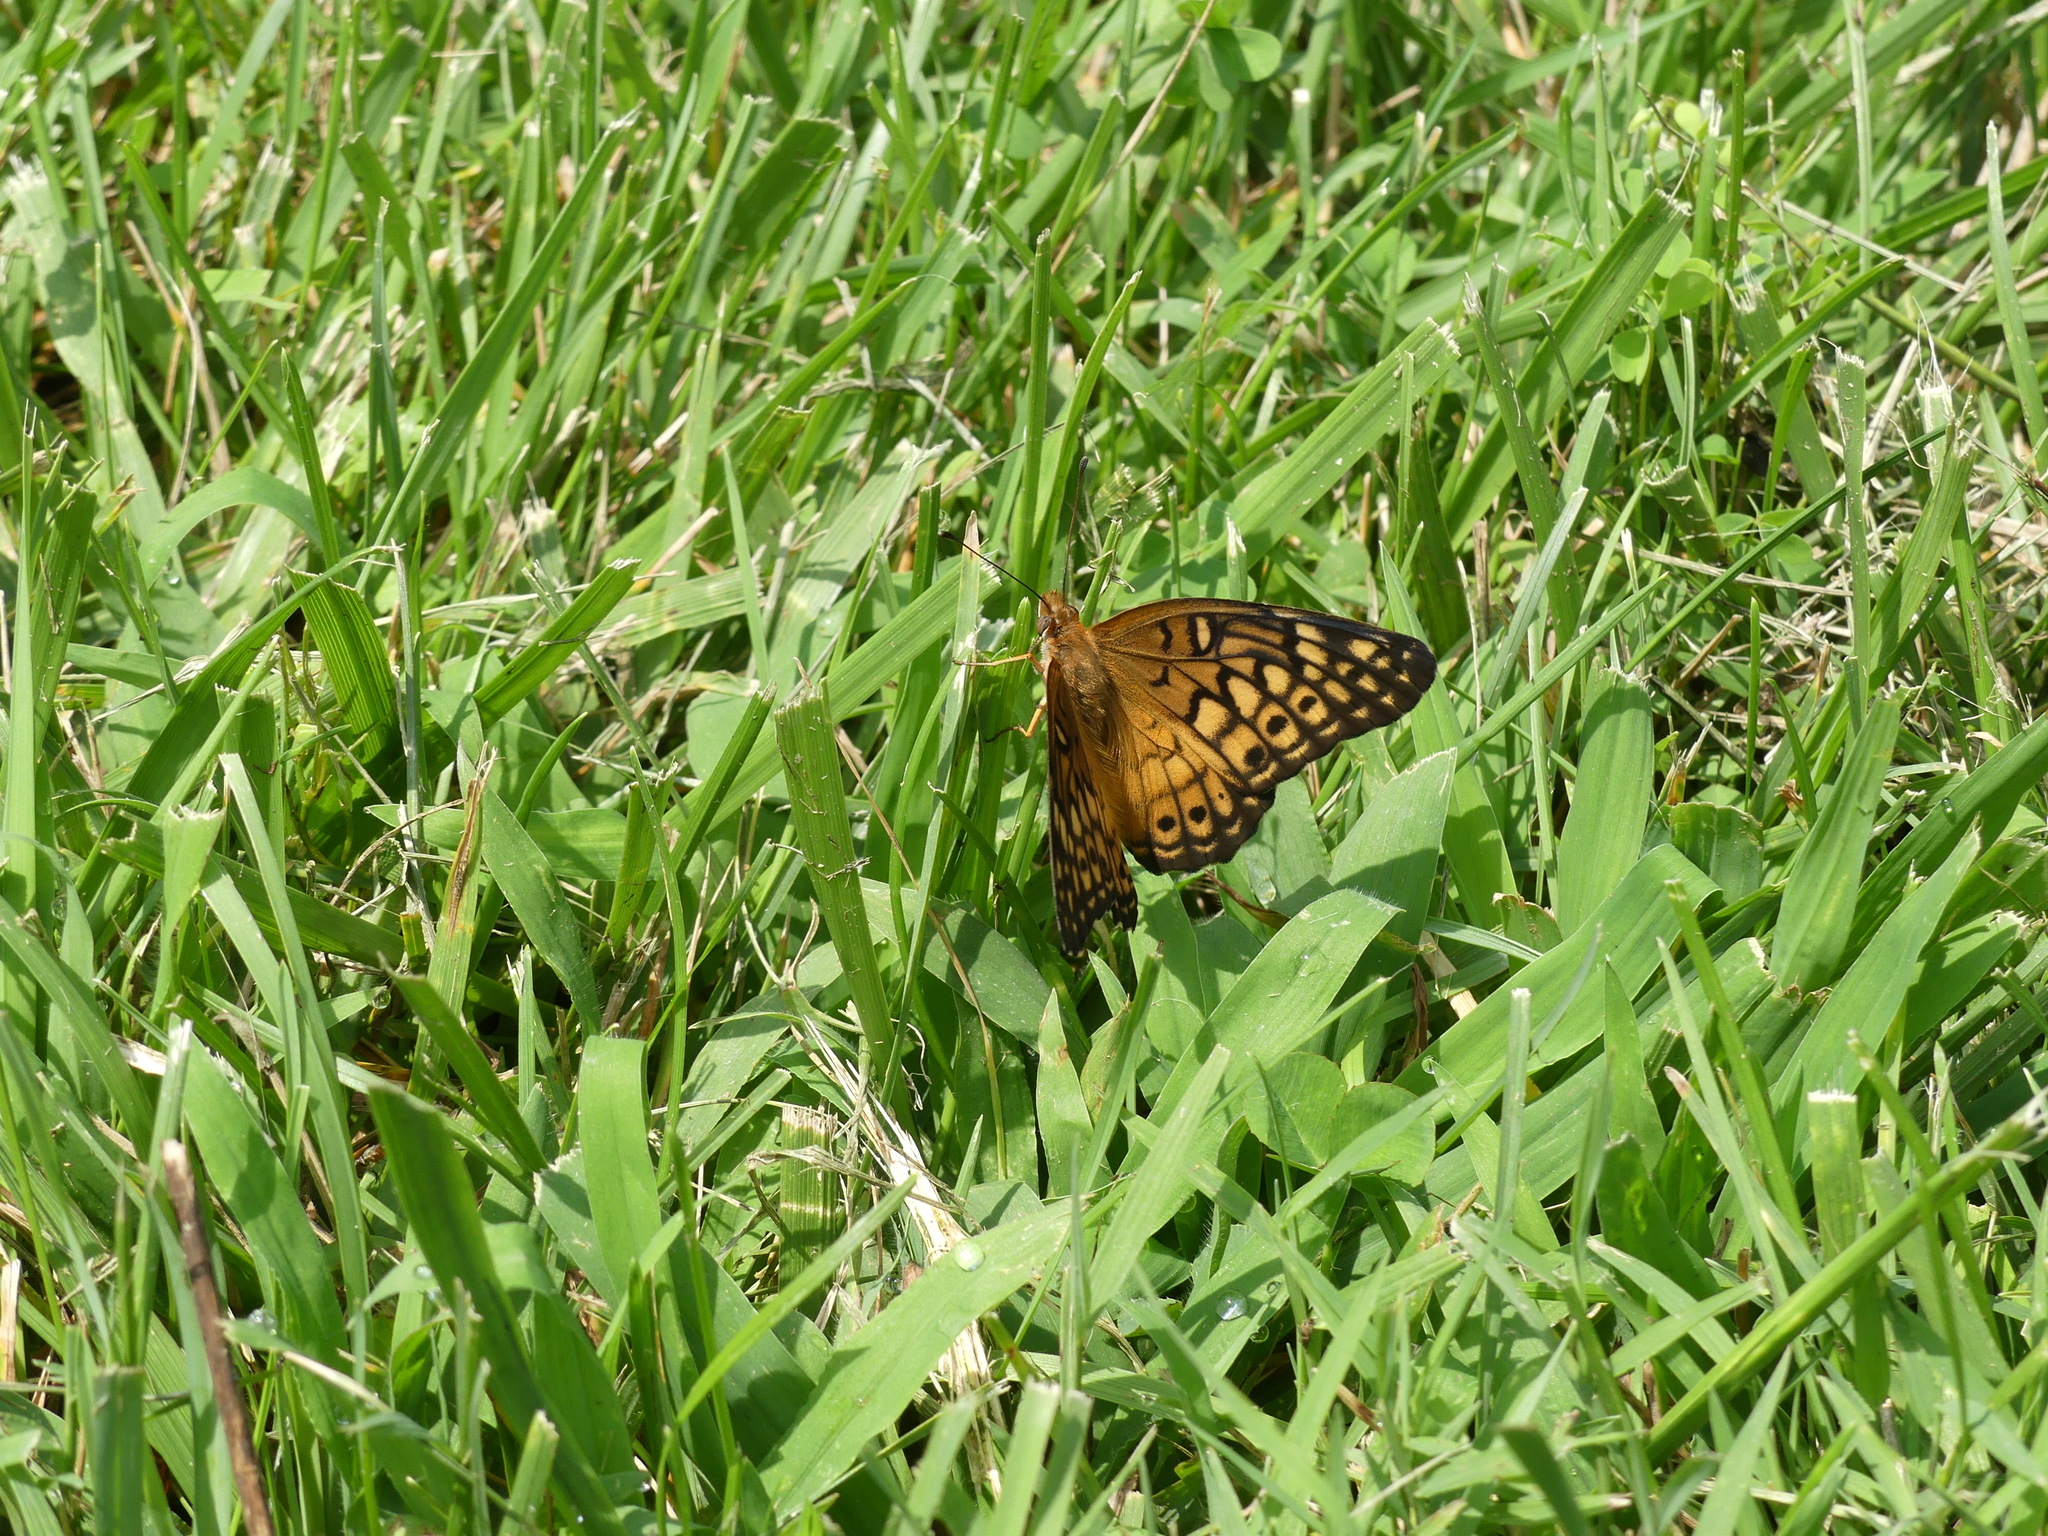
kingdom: Animalia
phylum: Arthropoda
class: Insecta
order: Lepidoptera
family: Nymphalidae
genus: Euptoieta
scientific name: Euptoieta claudia
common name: Variegated fritillary
